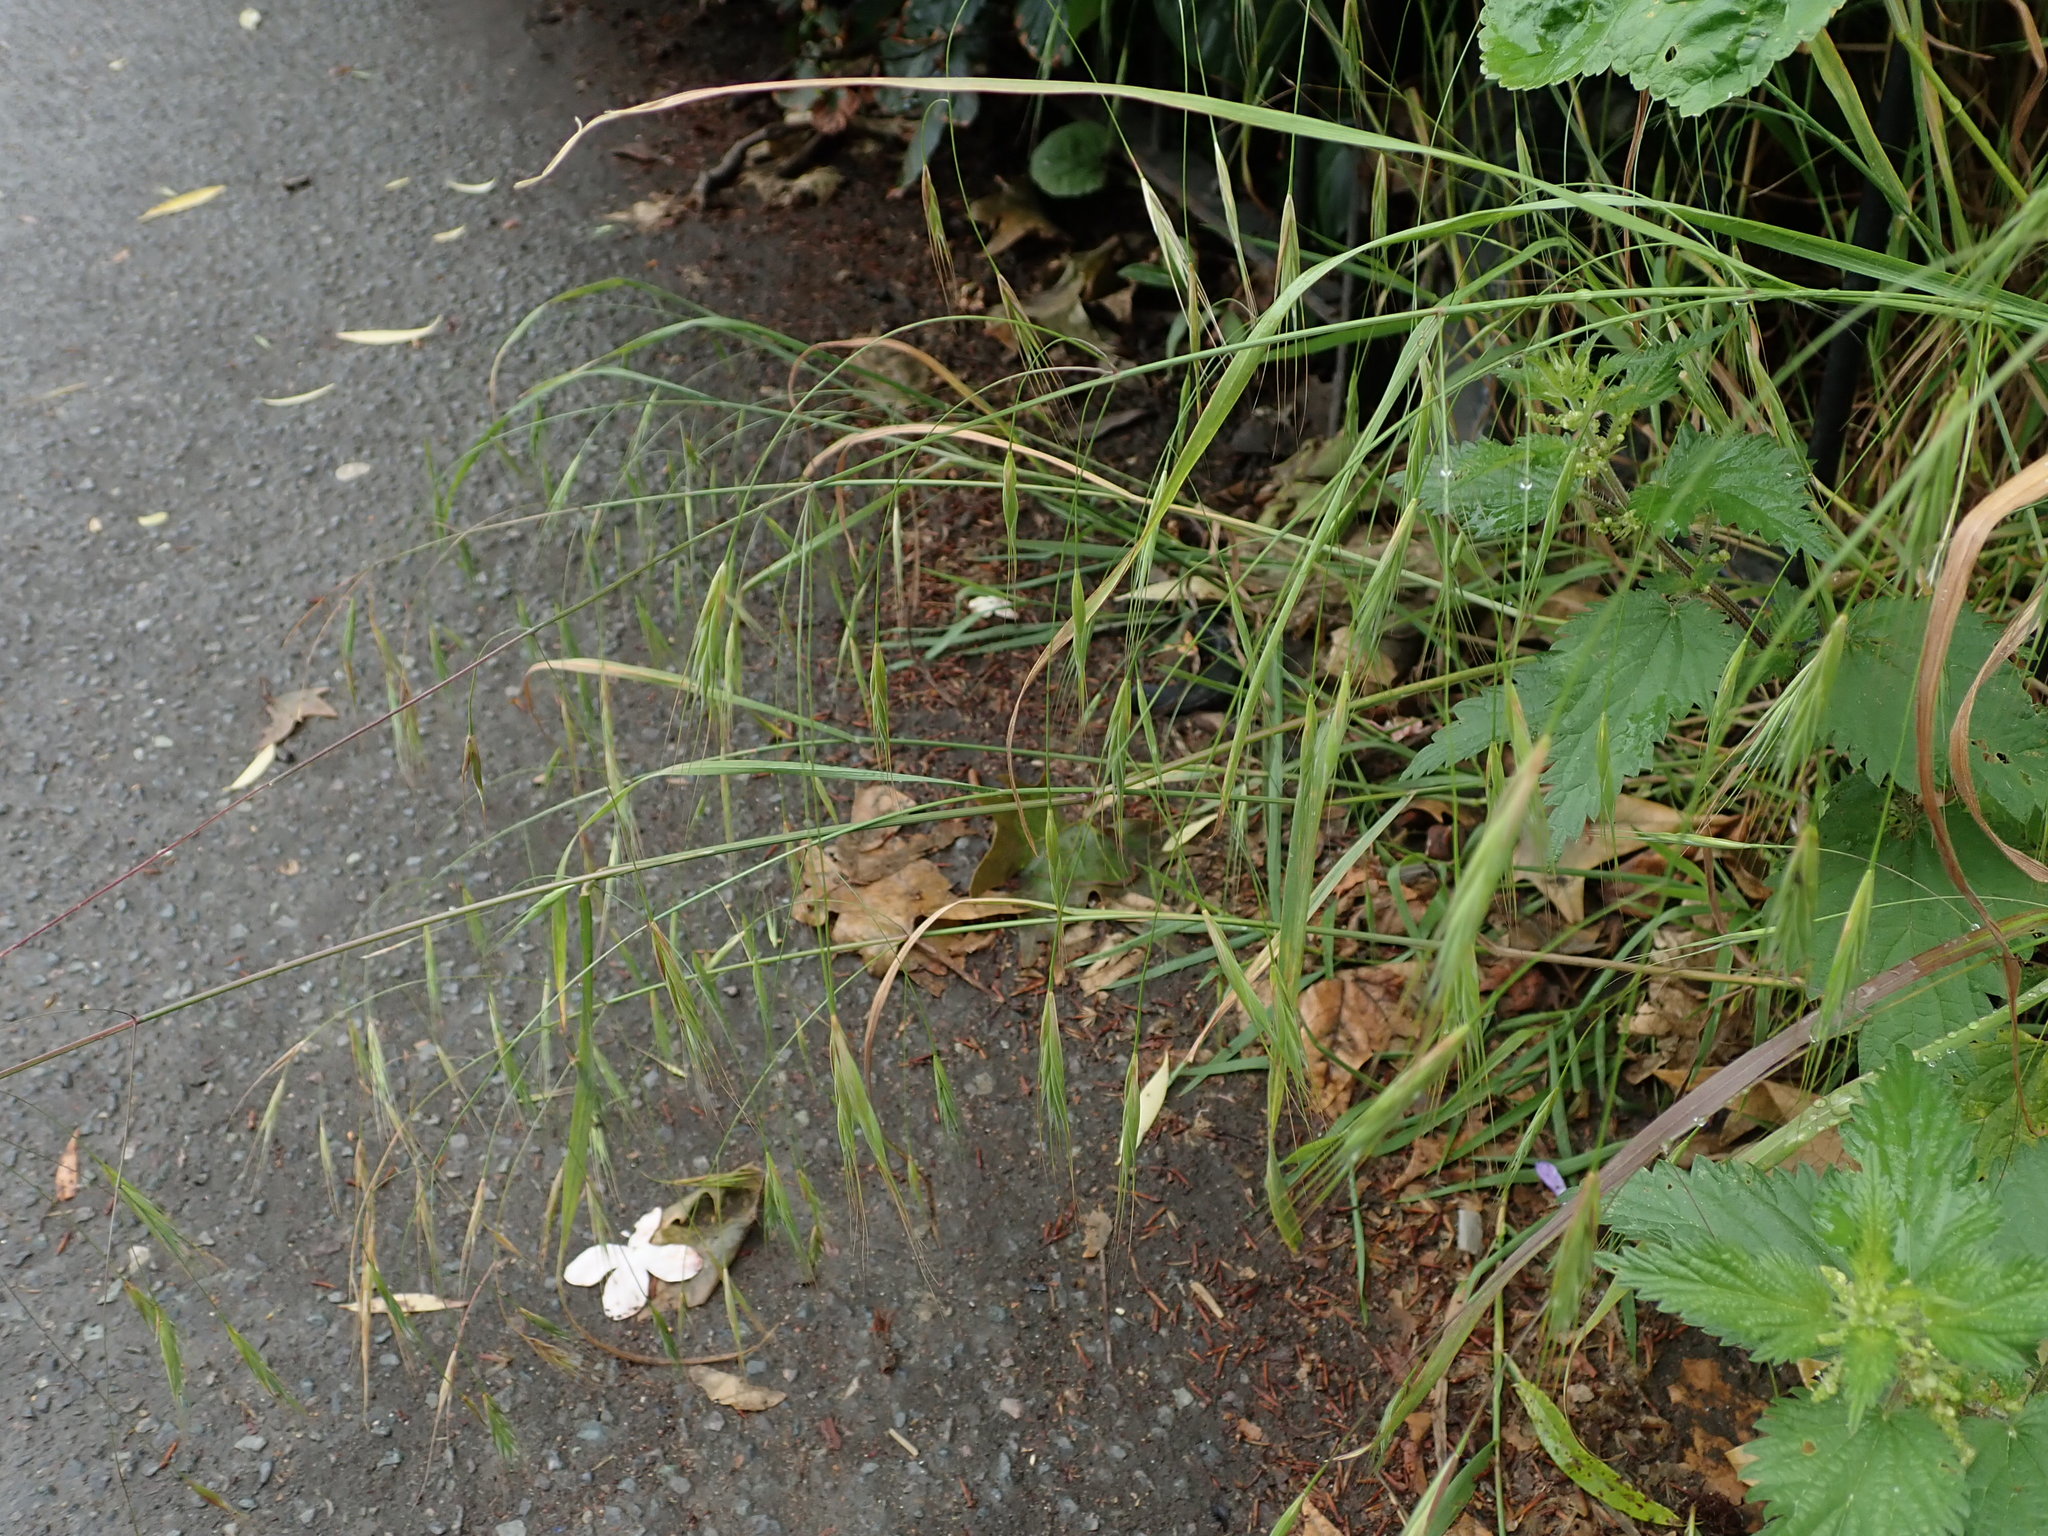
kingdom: Plantae
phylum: Tracheophyta
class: Liliopsida
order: Poales
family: Poaceae
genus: Bromus
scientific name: Bromus sterilis
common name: Poverty brome
